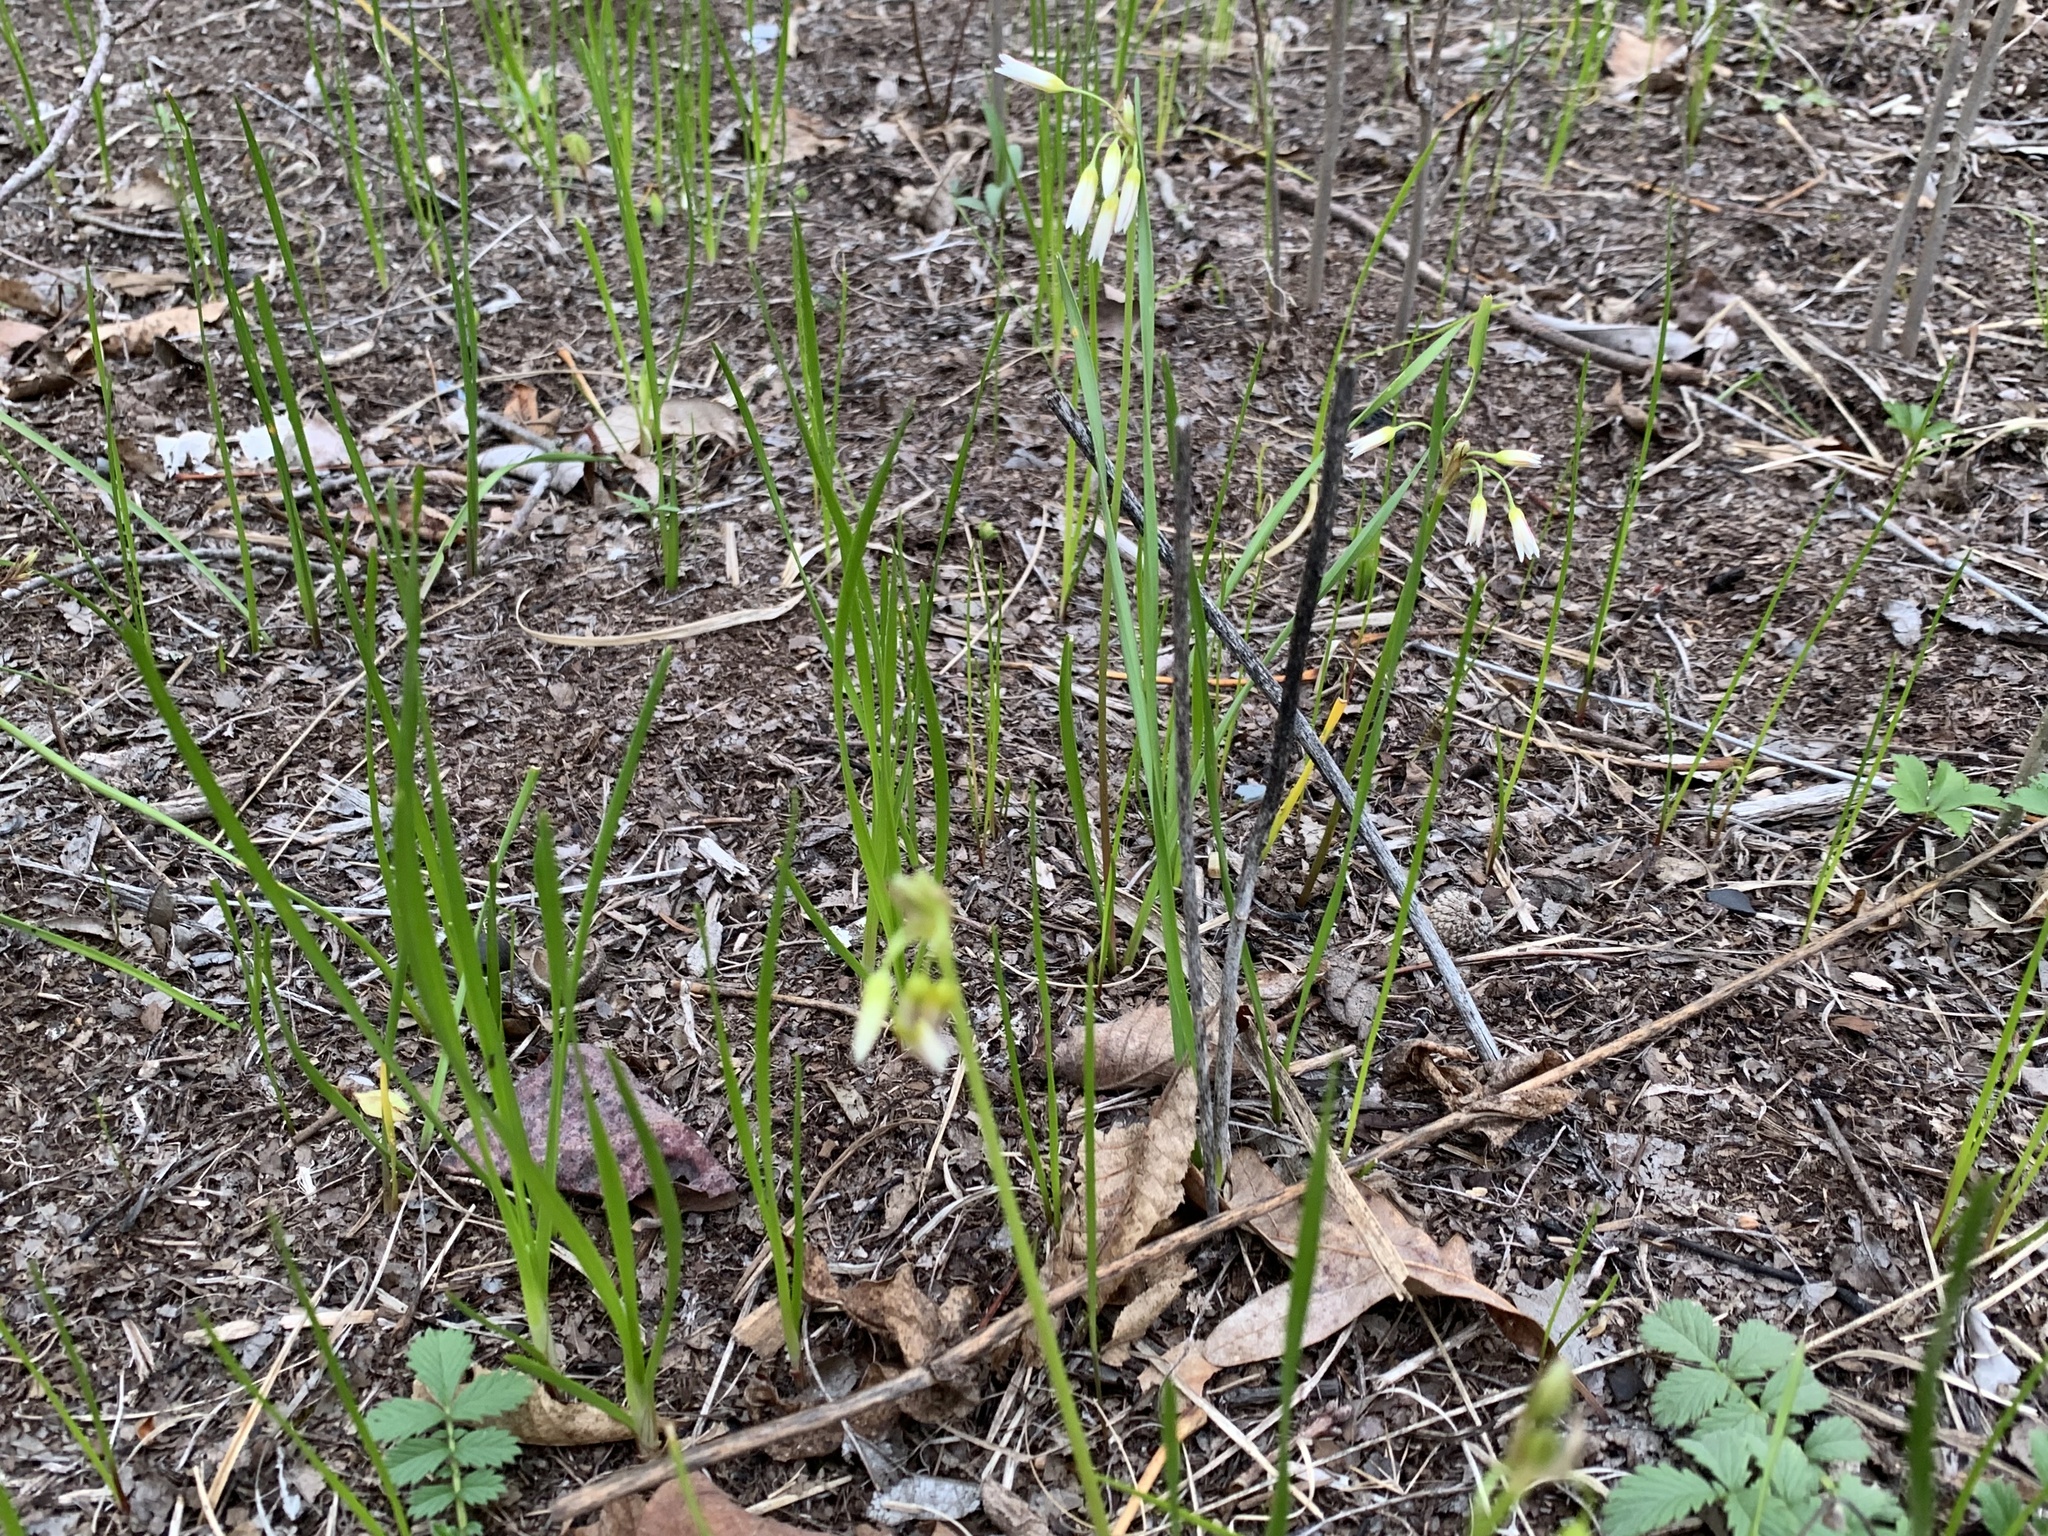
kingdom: Plantae
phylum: Tracheophyta
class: Liliopsida
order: Asparagales
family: Amaryllidaceae
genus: Nothoscordum
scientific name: Nothoscordum bivalve
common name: Crow-poison
